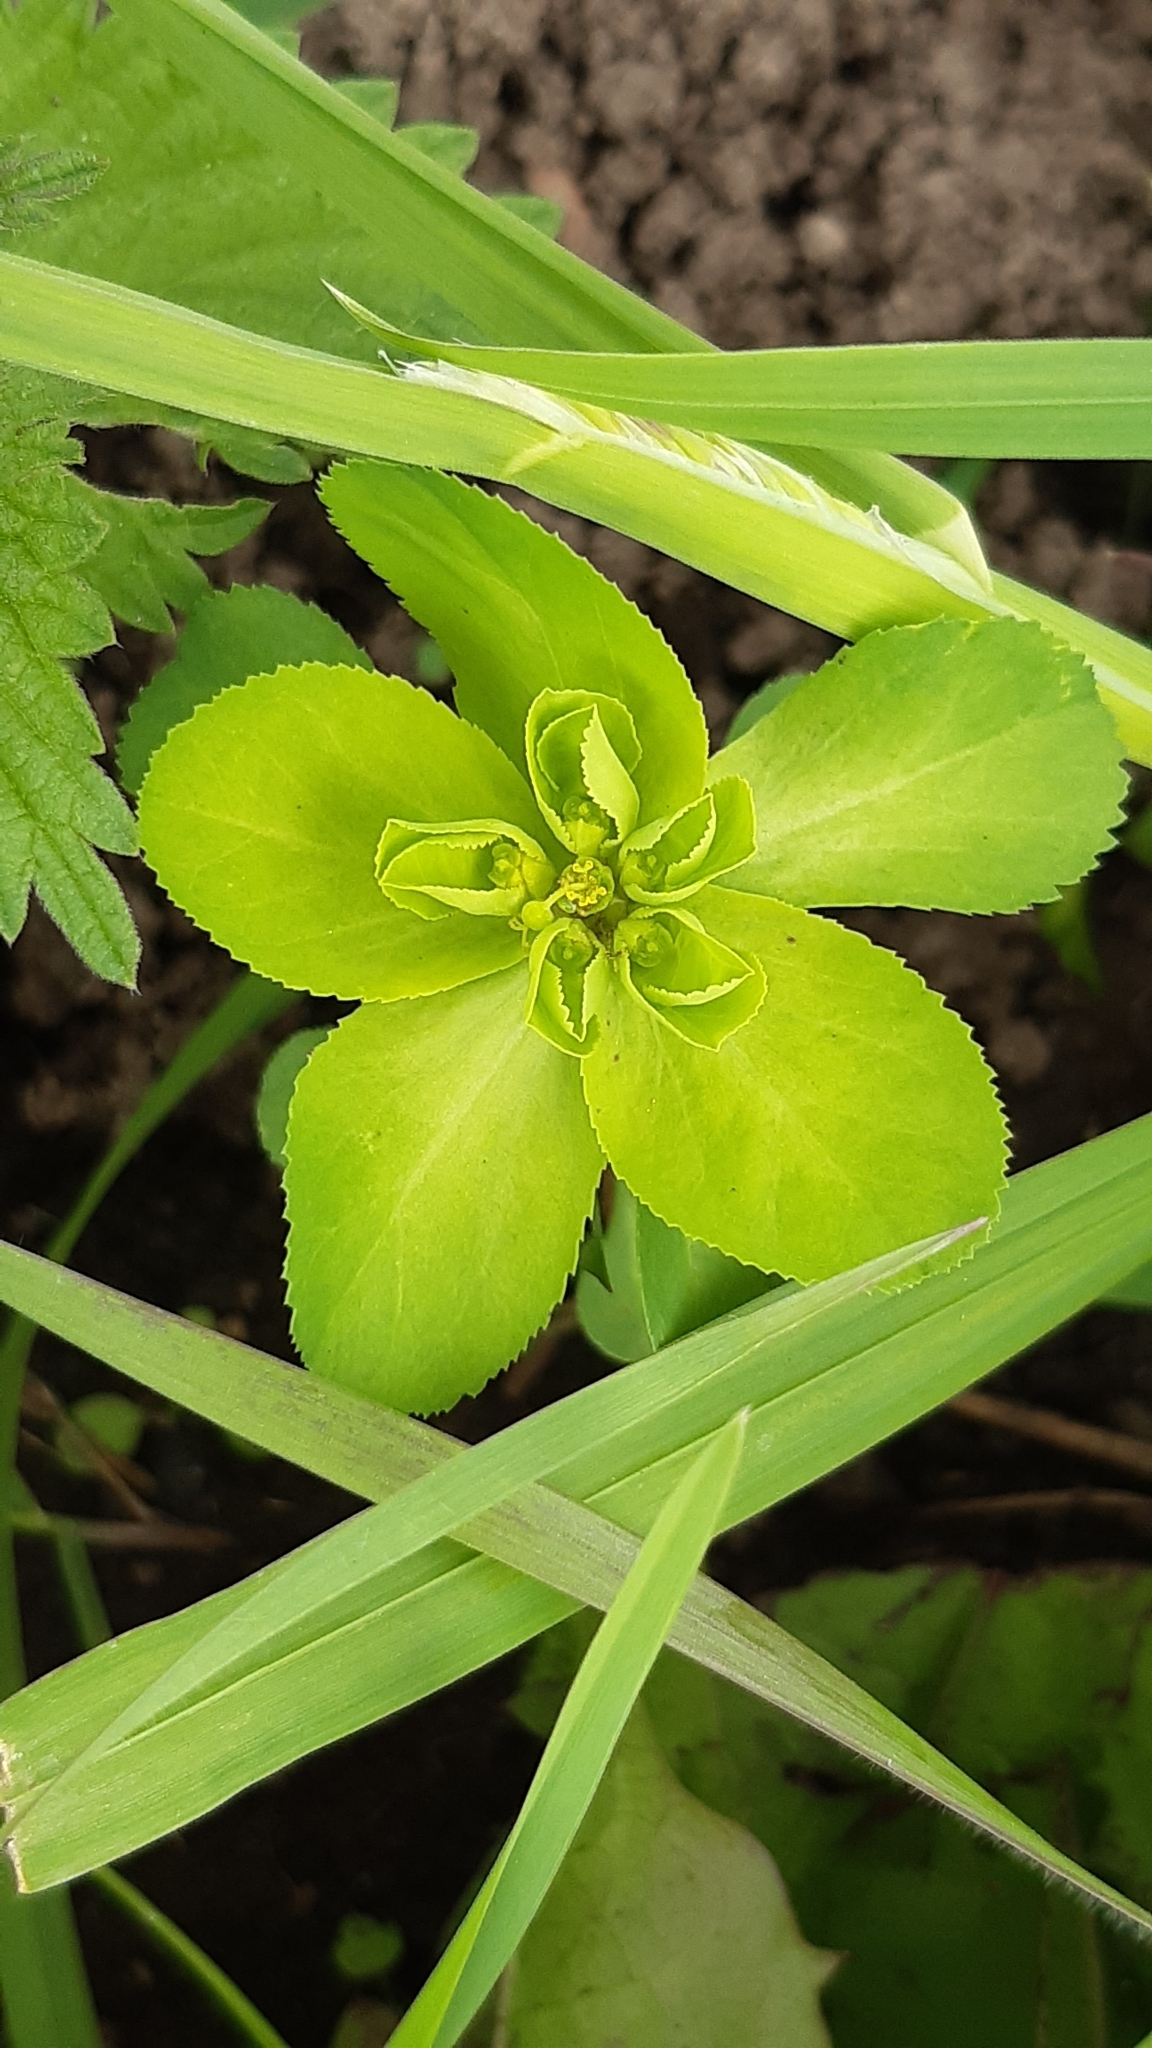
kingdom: Plantae
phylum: Tracheophyta
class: Magnoliopsida
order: Malpighiales
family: Euphorbiaceae
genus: Euphorbia
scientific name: Euphorbia helioscopia
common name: Sun spurge
